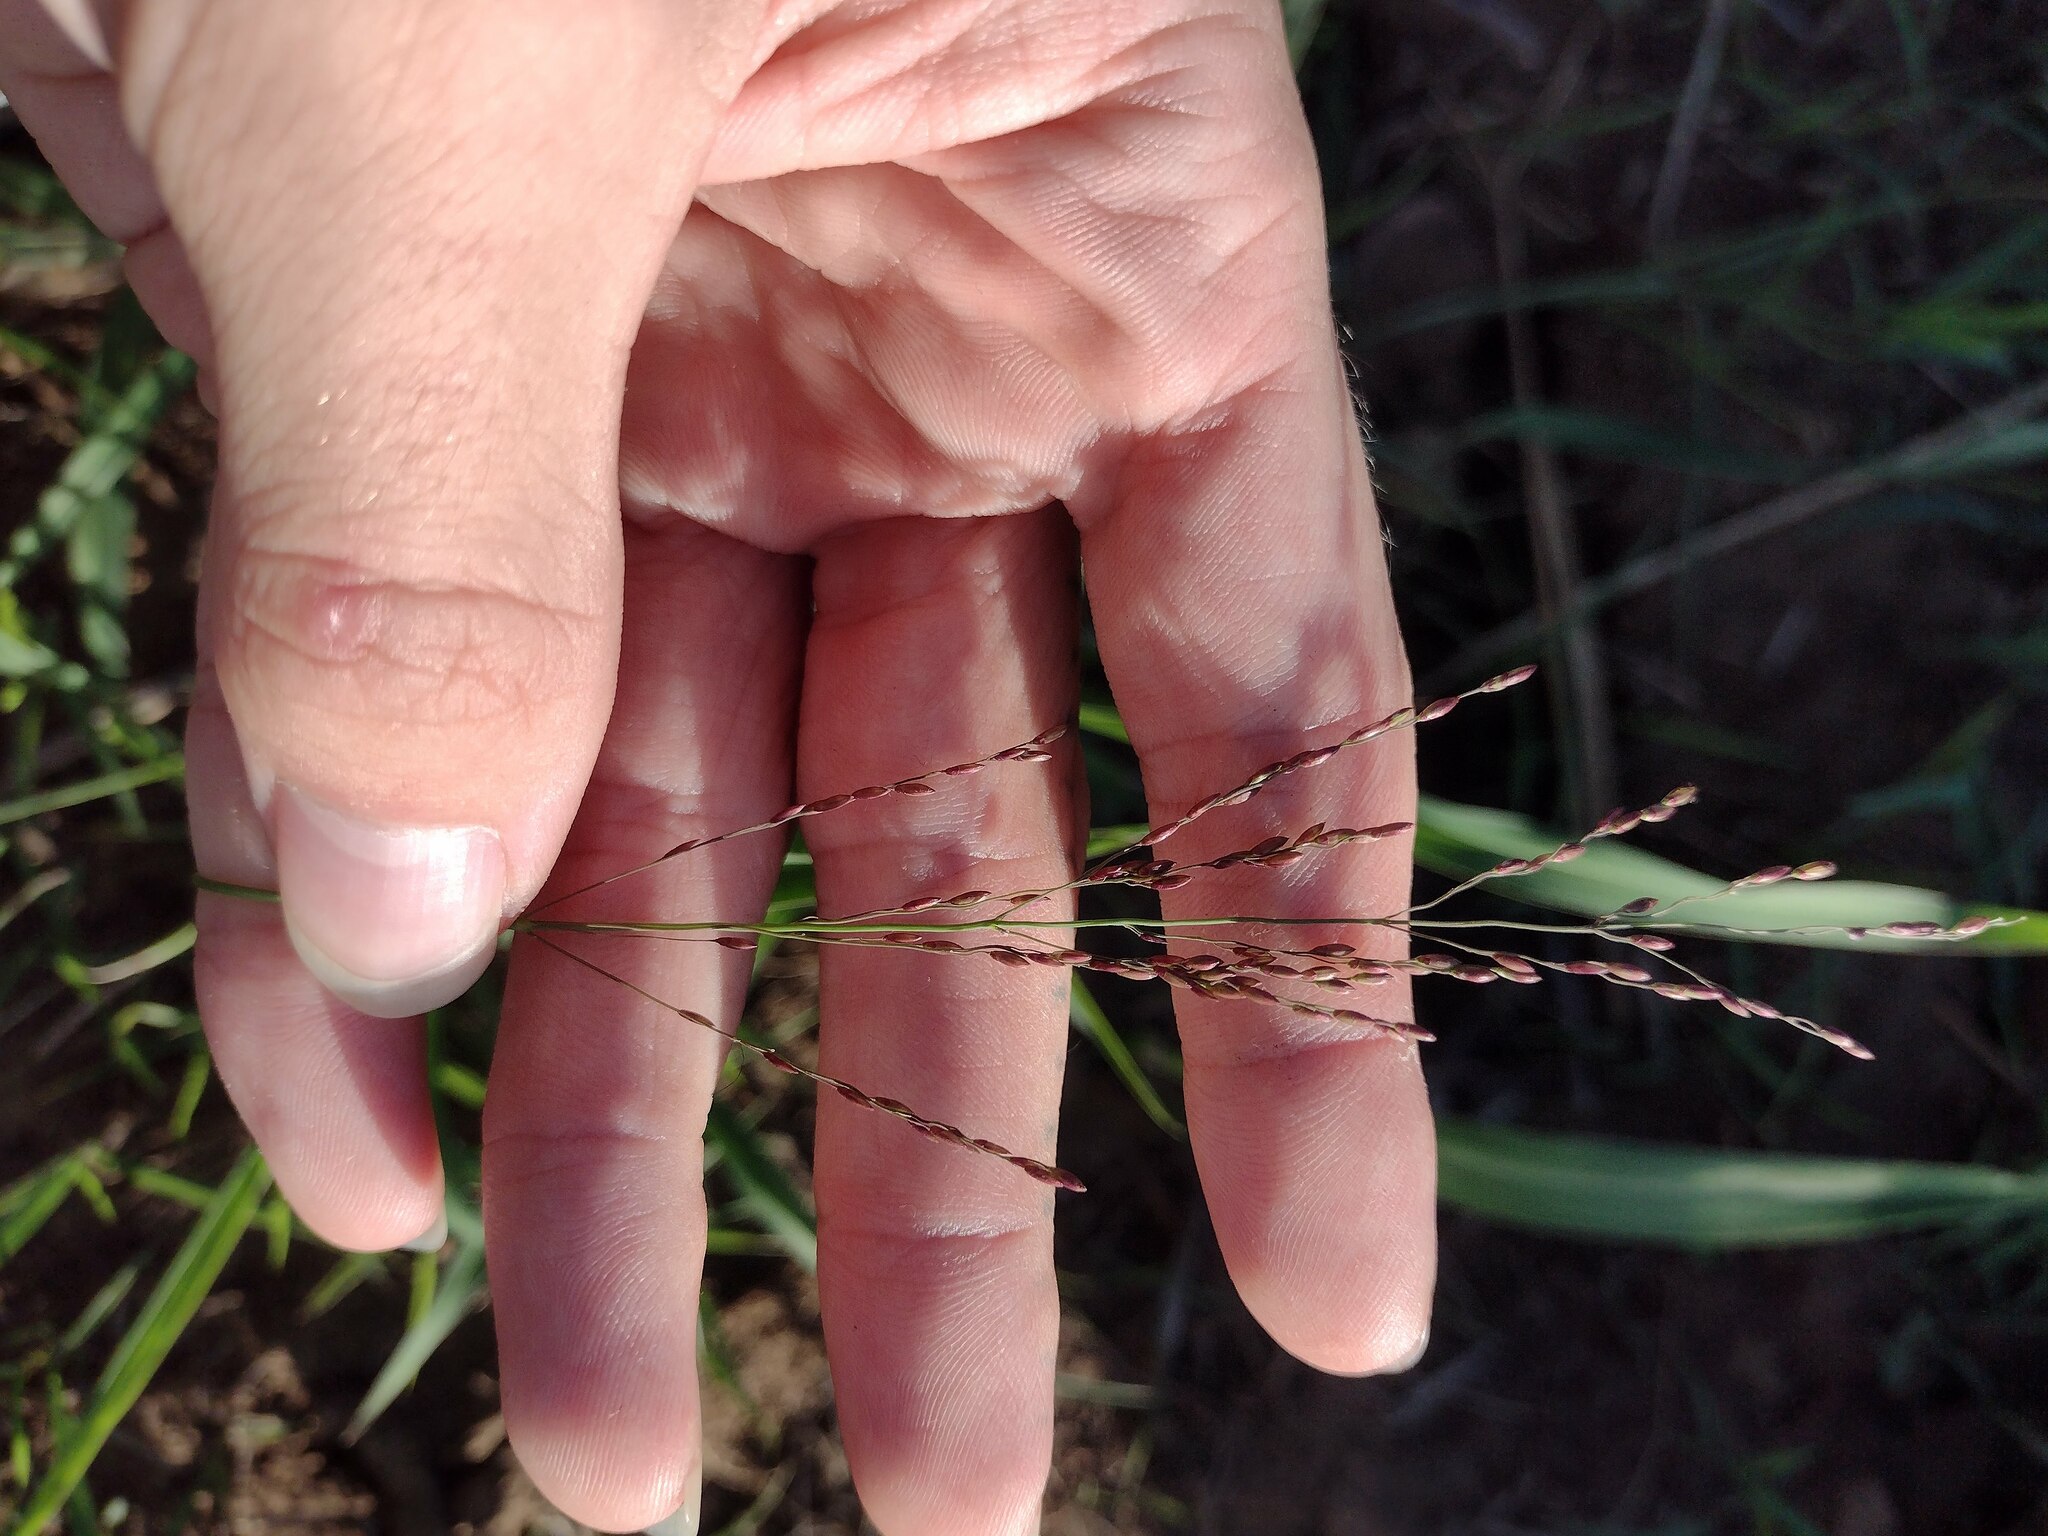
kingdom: Plantae
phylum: Tracheophyta
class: Liliopsida
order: Poales
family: Poaceae
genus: Megathyrsus
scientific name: Megathyrsus maximus
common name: Guineagrass
